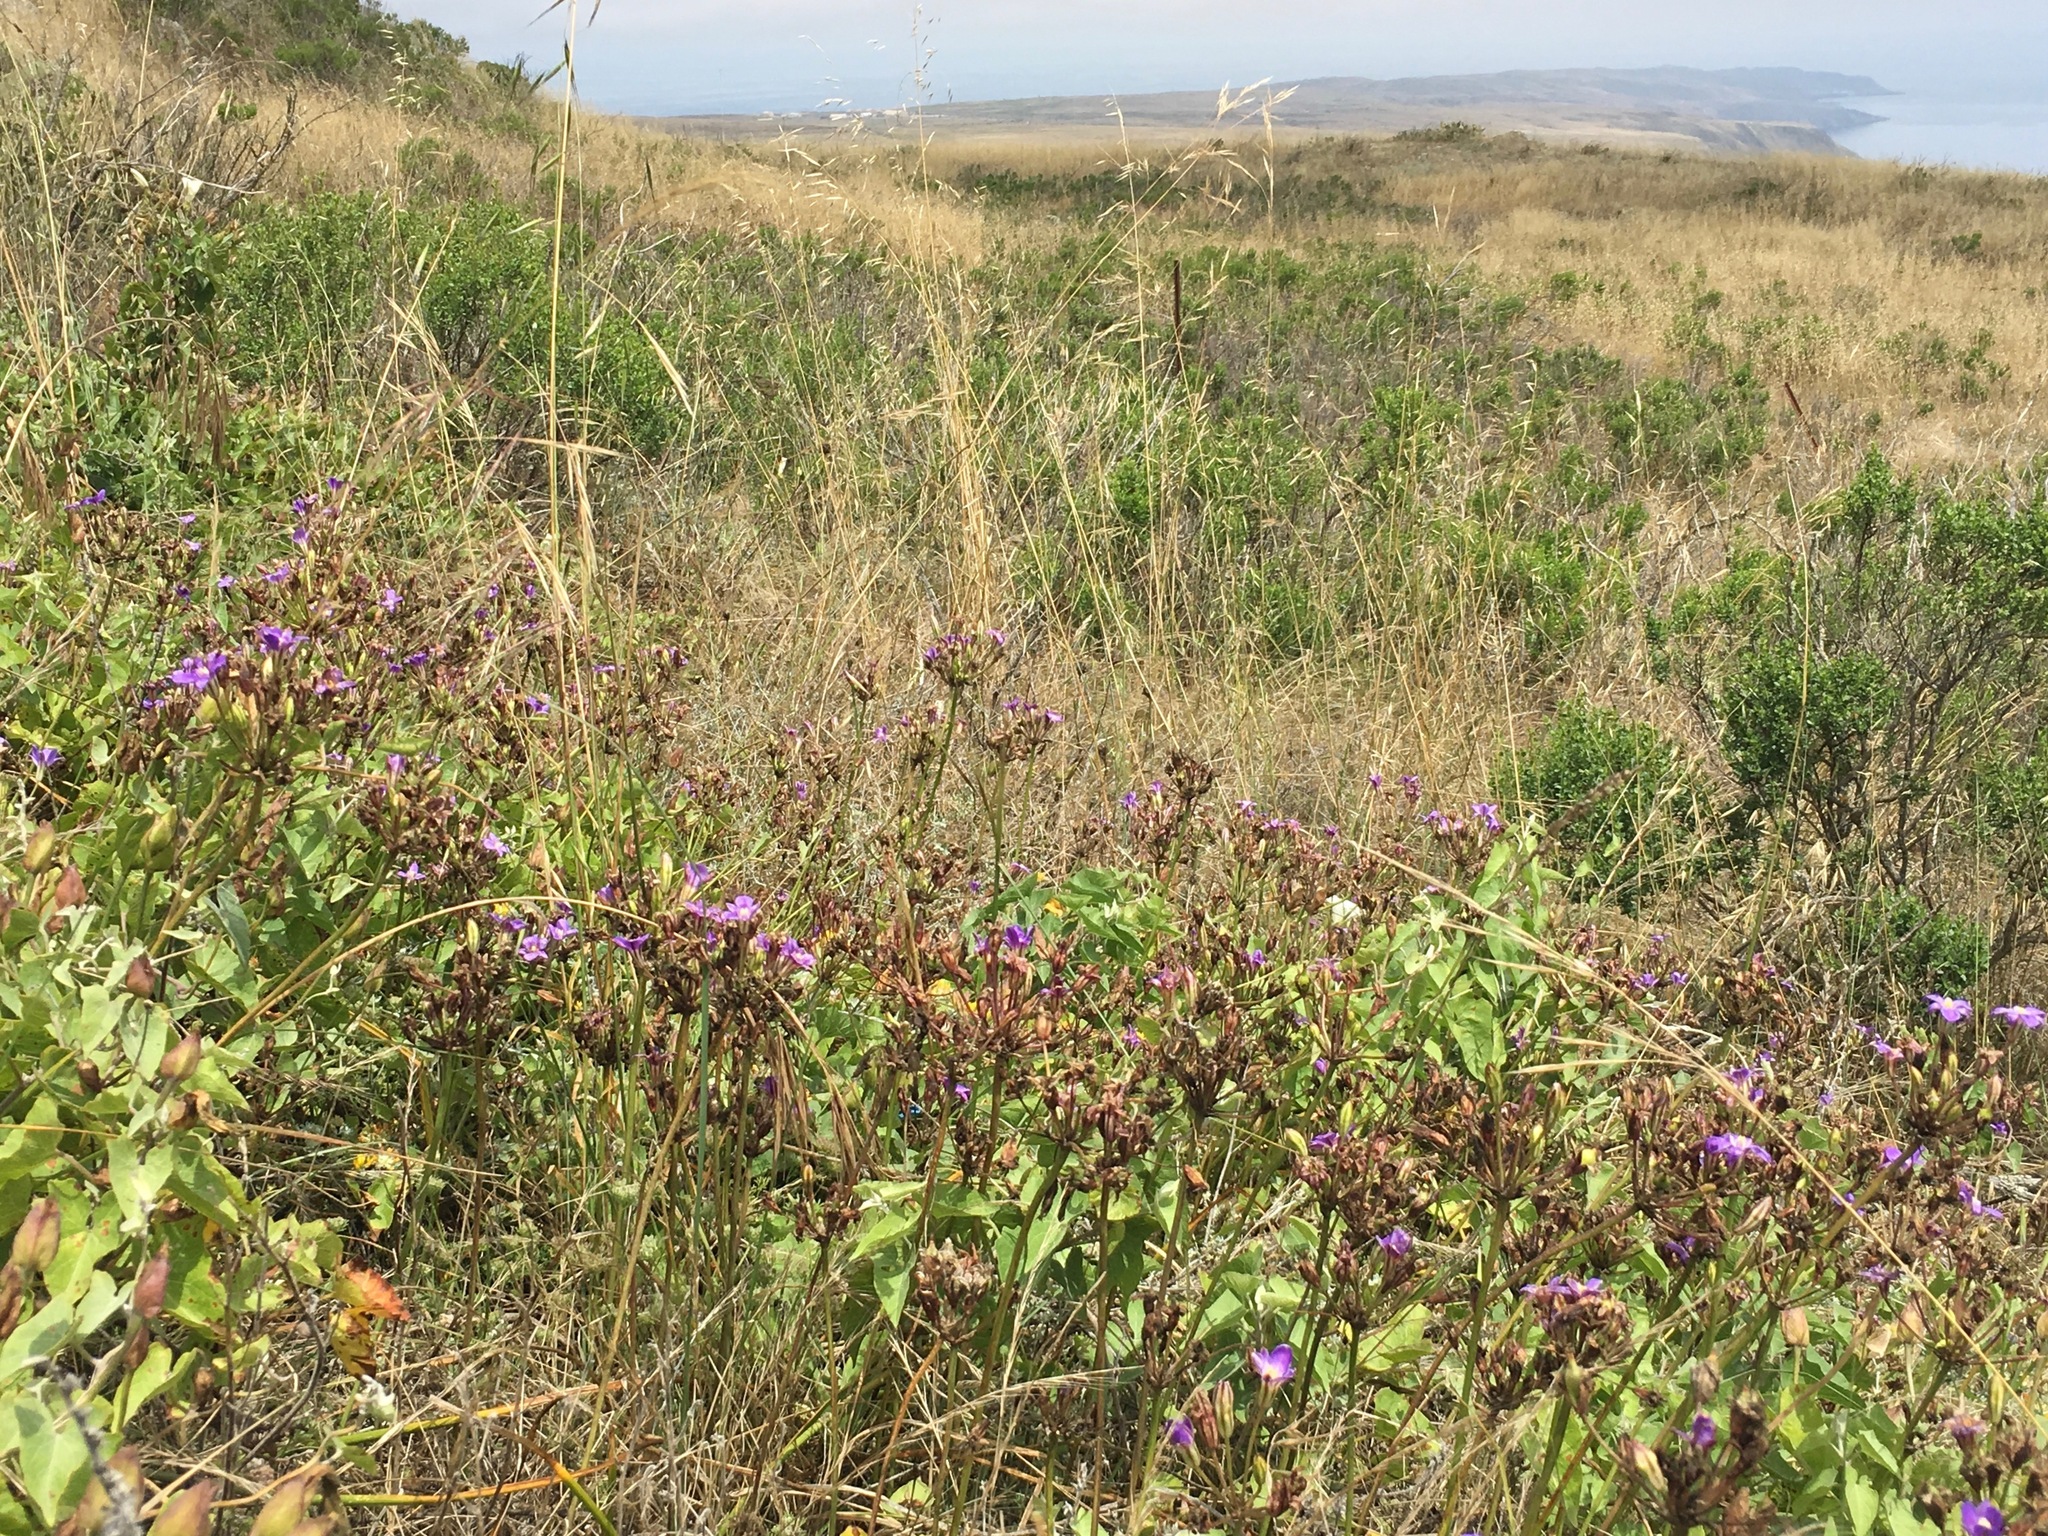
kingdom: Plantae
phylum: Tracheophyta
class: Liliopsida
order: Asparagales
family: Asparagaceae
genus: Brodiaea
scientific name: Brodiaea kinkiensis
